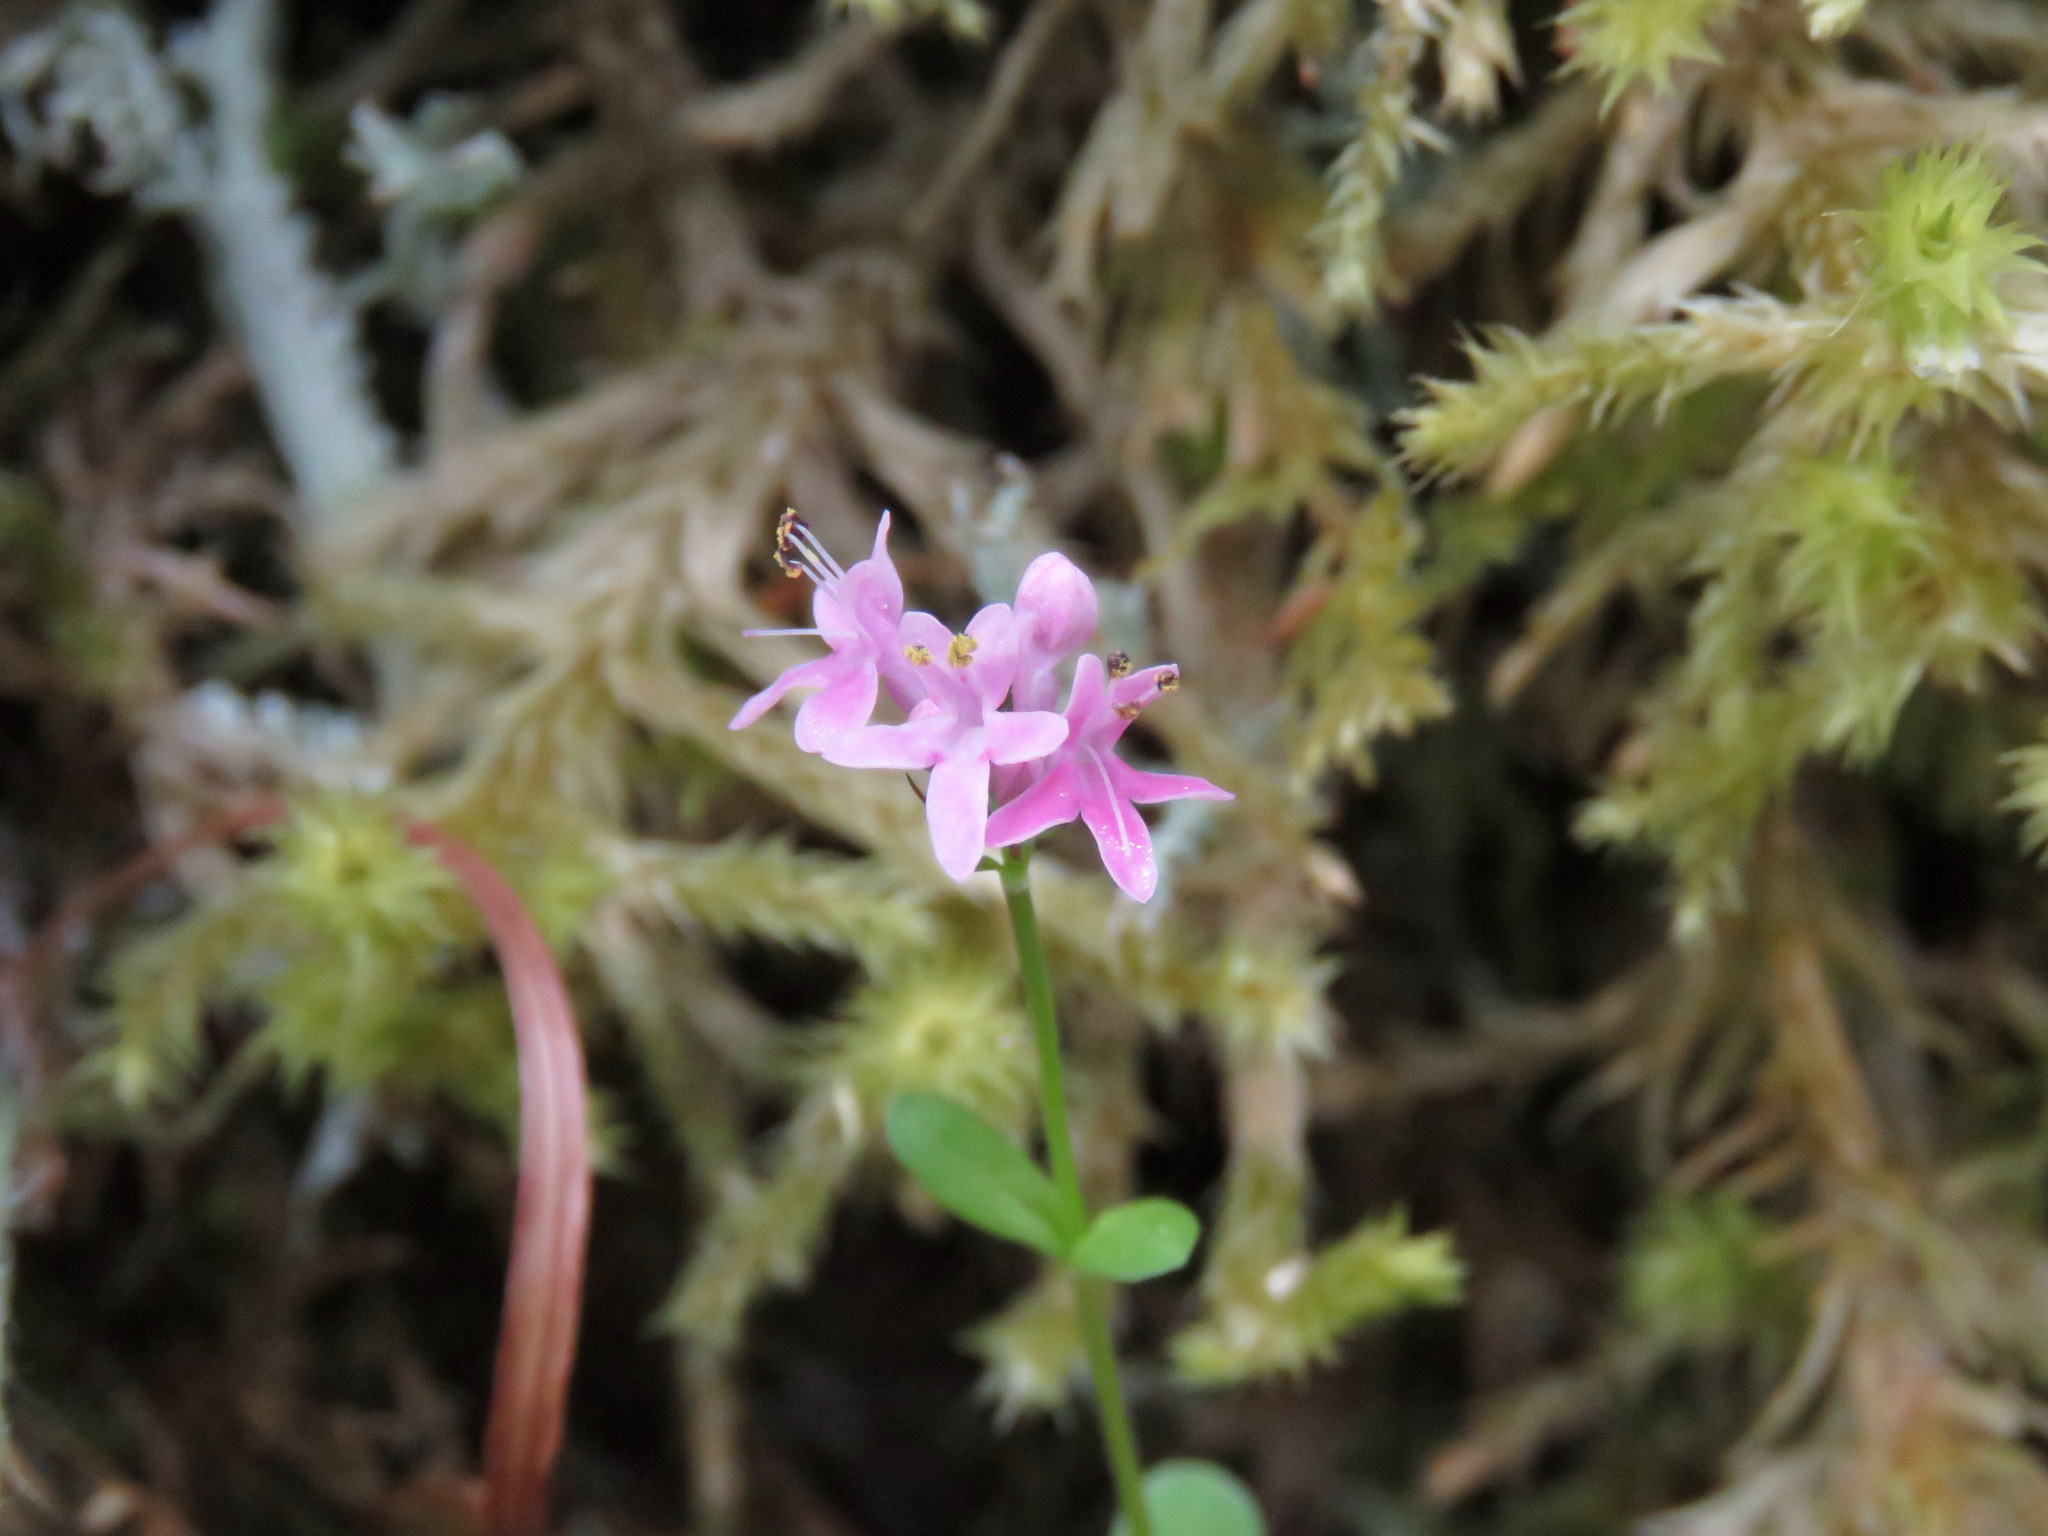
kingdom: Plantae
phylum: Tracheophyta
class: Magnoliopsida
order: Dipsacales
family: Caprifoliaceae
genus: Plectritis
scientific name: Plectritis congesta
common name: Pink plectritis
